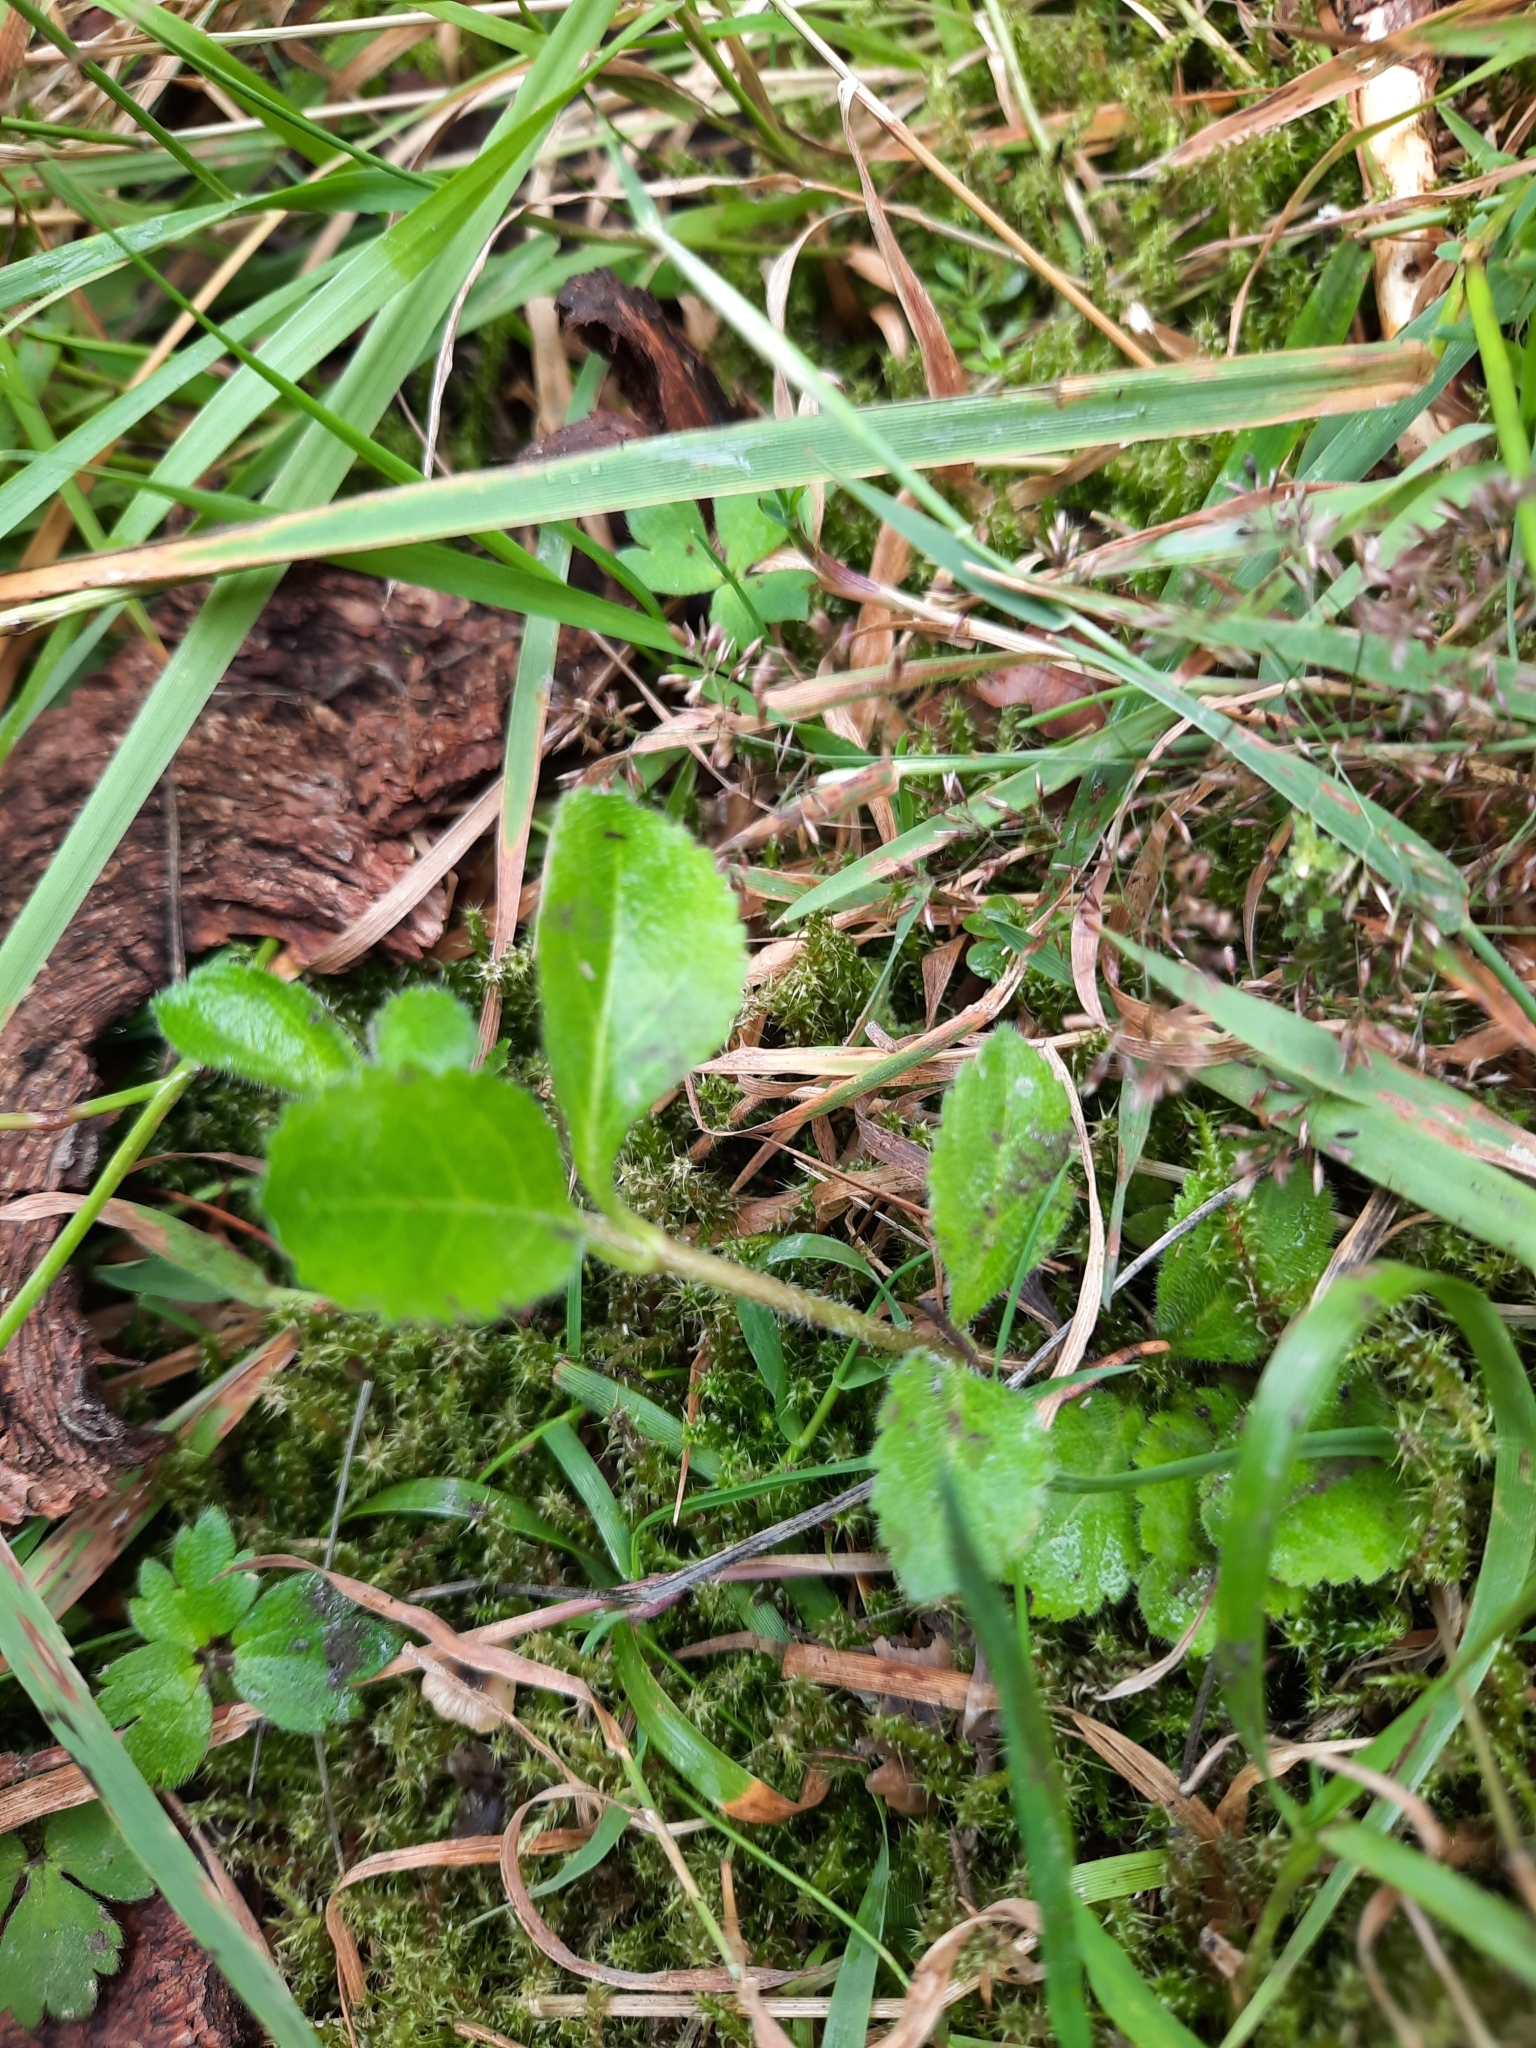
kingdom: Plantae
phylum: Tracheophyta
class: Magnoliopsida
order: Lamiales
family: Plantaginaceae
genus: Veronica
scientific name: Veronica officinalis
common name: Common speedwell
